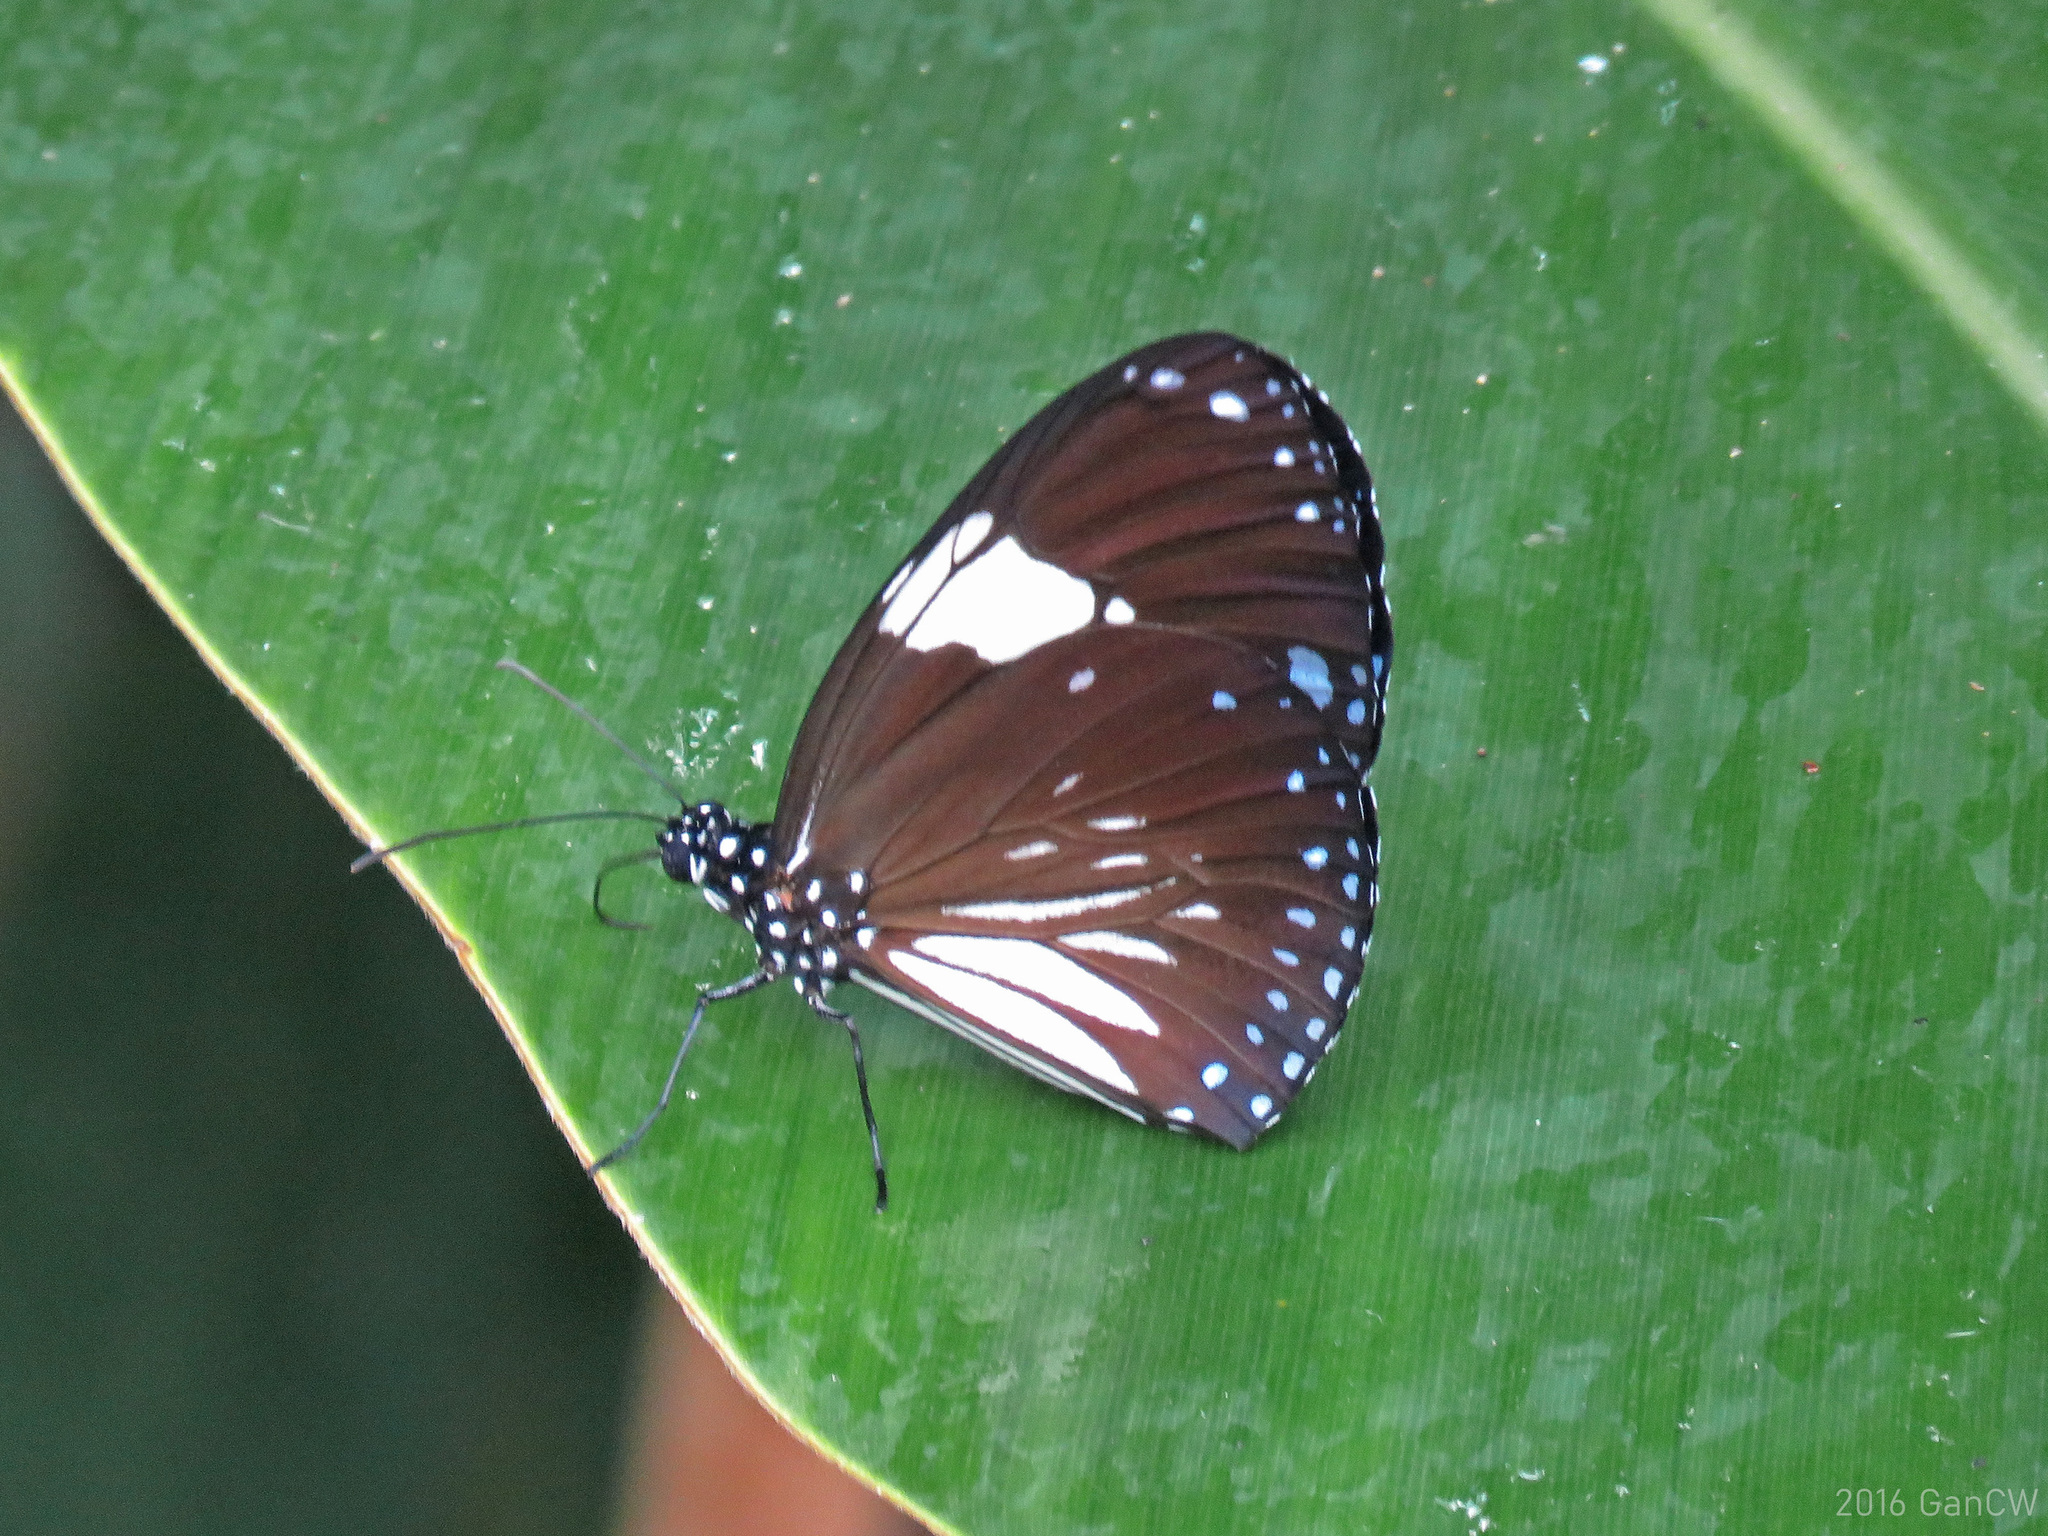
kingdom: Animalia
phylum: Arthropoda
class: Insecta
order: Lepidoptera
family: Nymphalidae
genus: Euploea
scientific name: Euploea radamanthus
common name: Magpie crow butterfly
